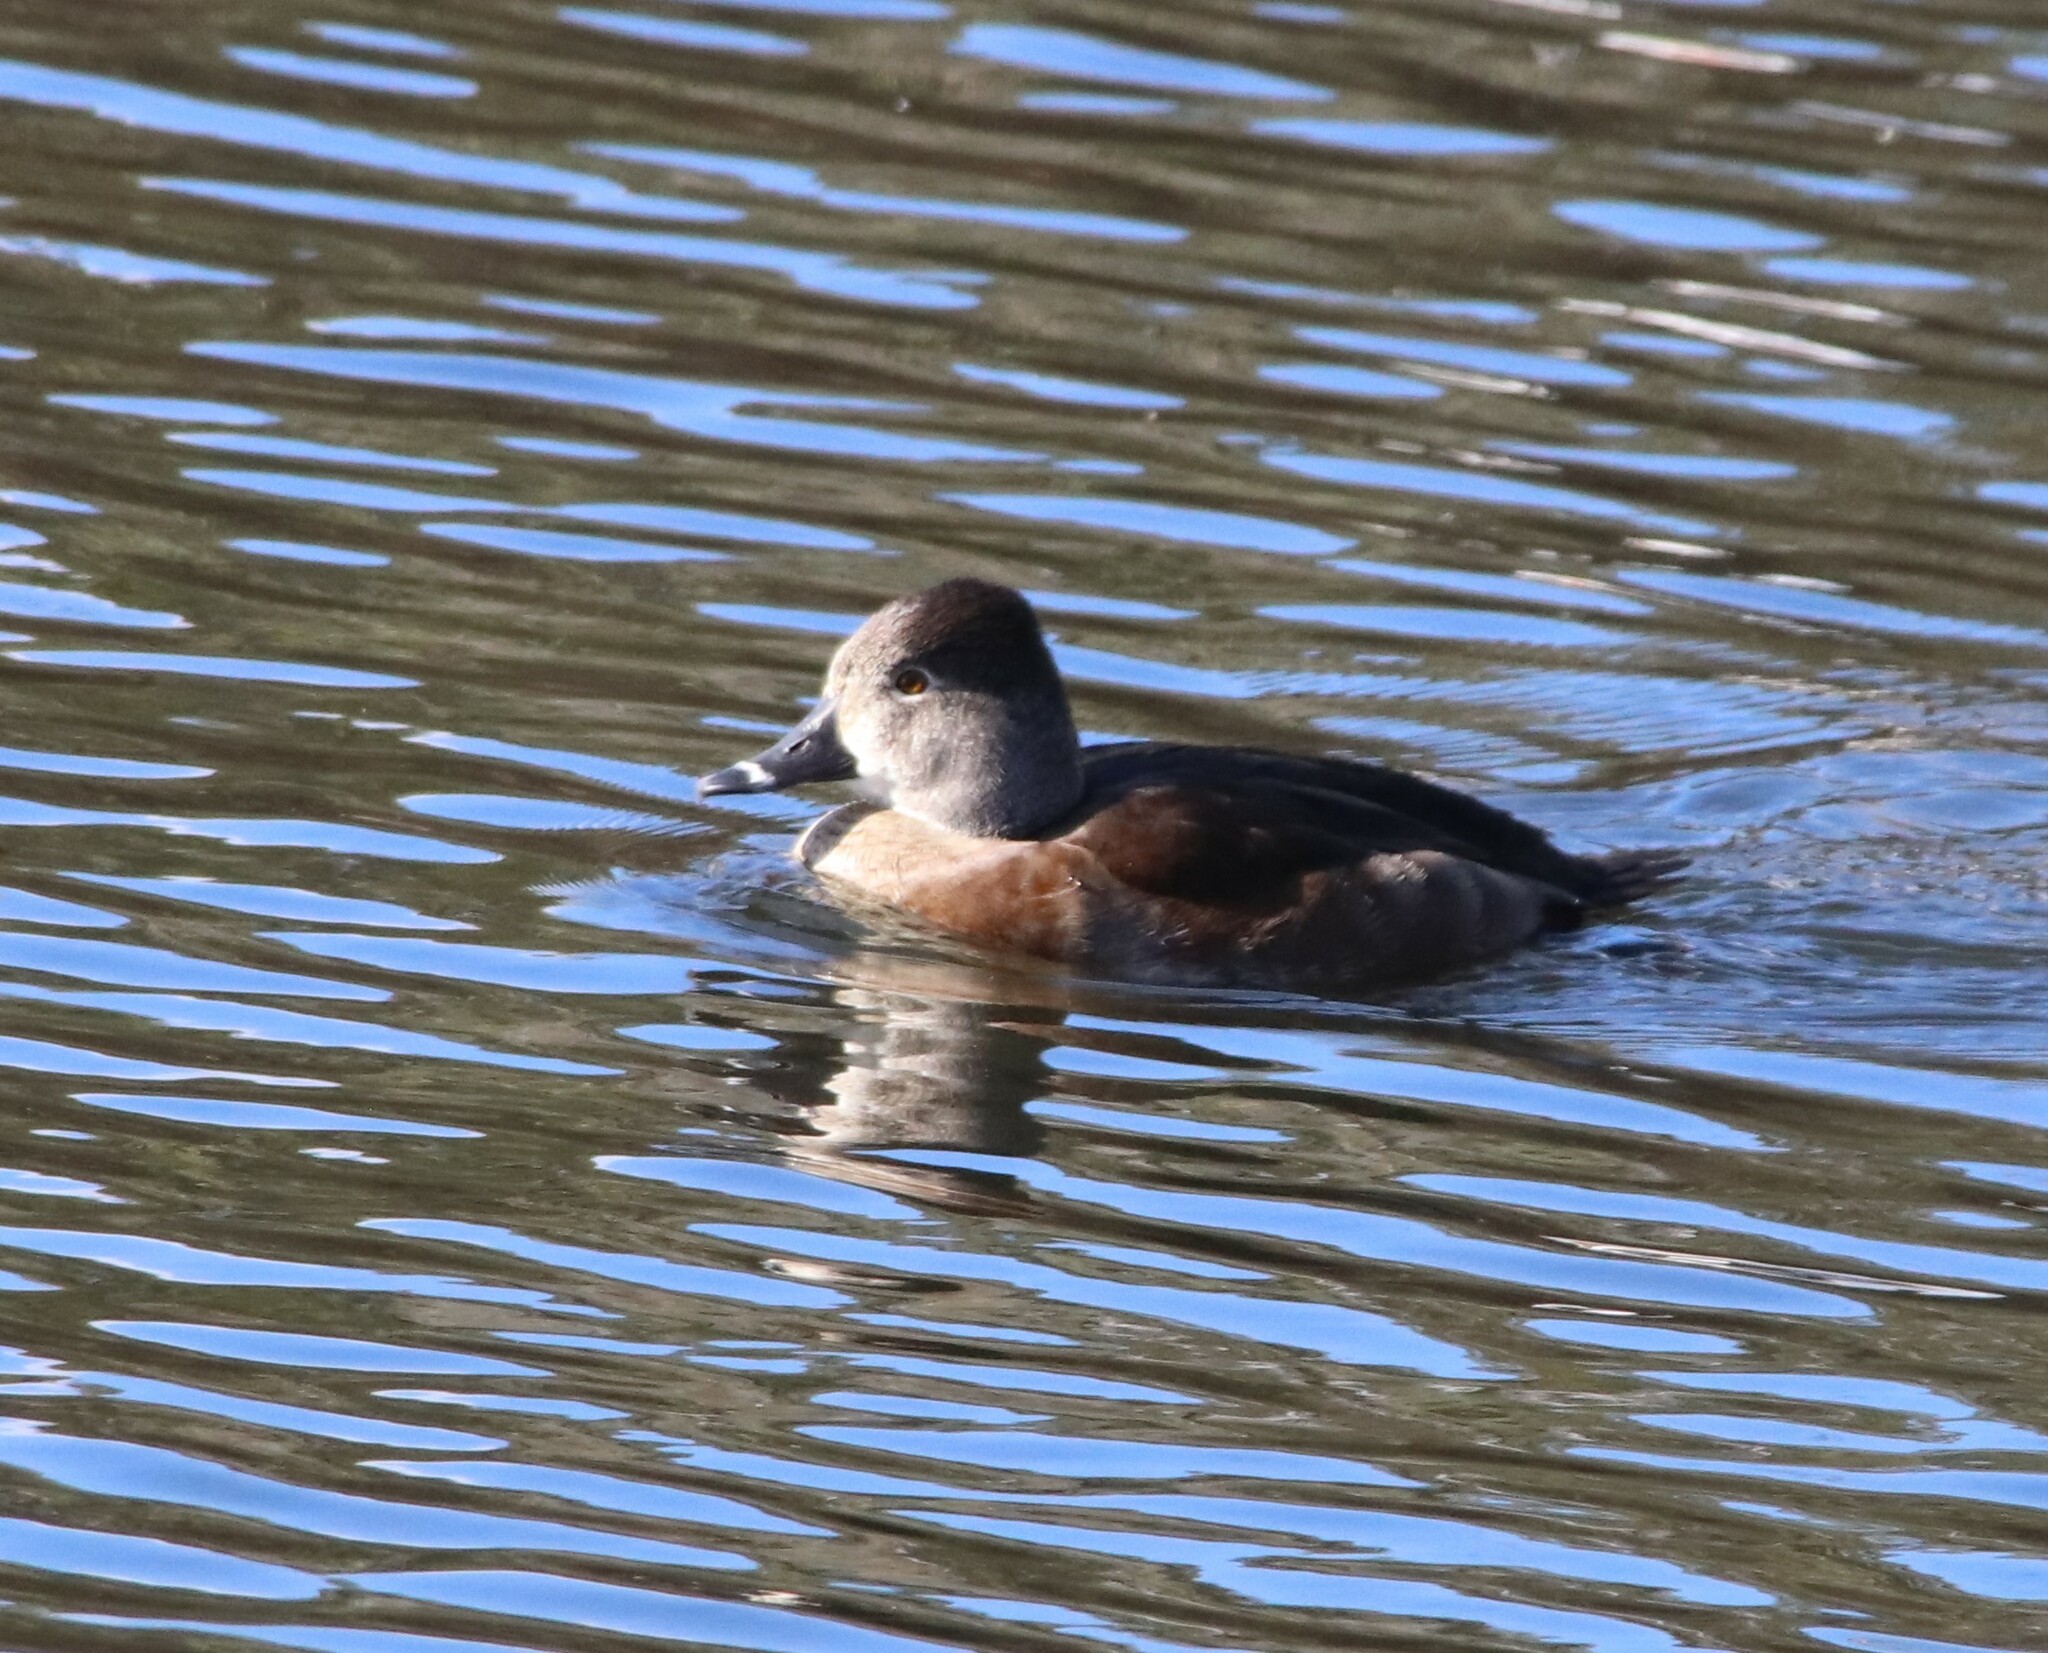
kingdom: Animalia
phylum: Chordata
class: Aves
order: Anseriformes
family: Anatidae
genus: Aythya
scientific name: Aythya collaris
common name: Ring-necked duck
